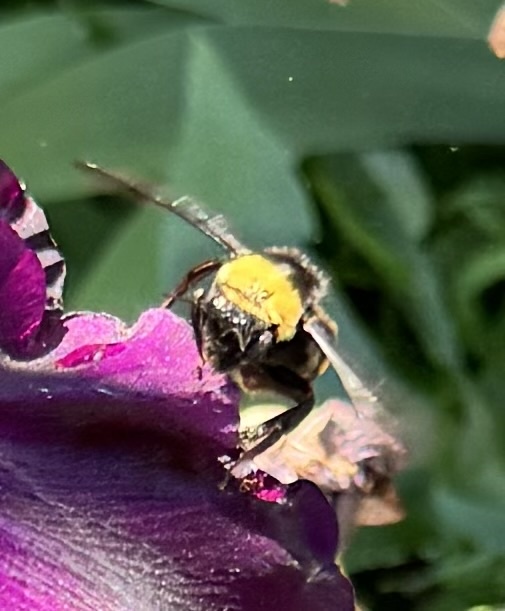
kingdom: Animalia
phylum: Arthropoda
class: Insecta
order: Hymenoptera
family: Apidae
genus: Bombus
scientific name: Bombus crotchii
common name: Crotch bumble bee
